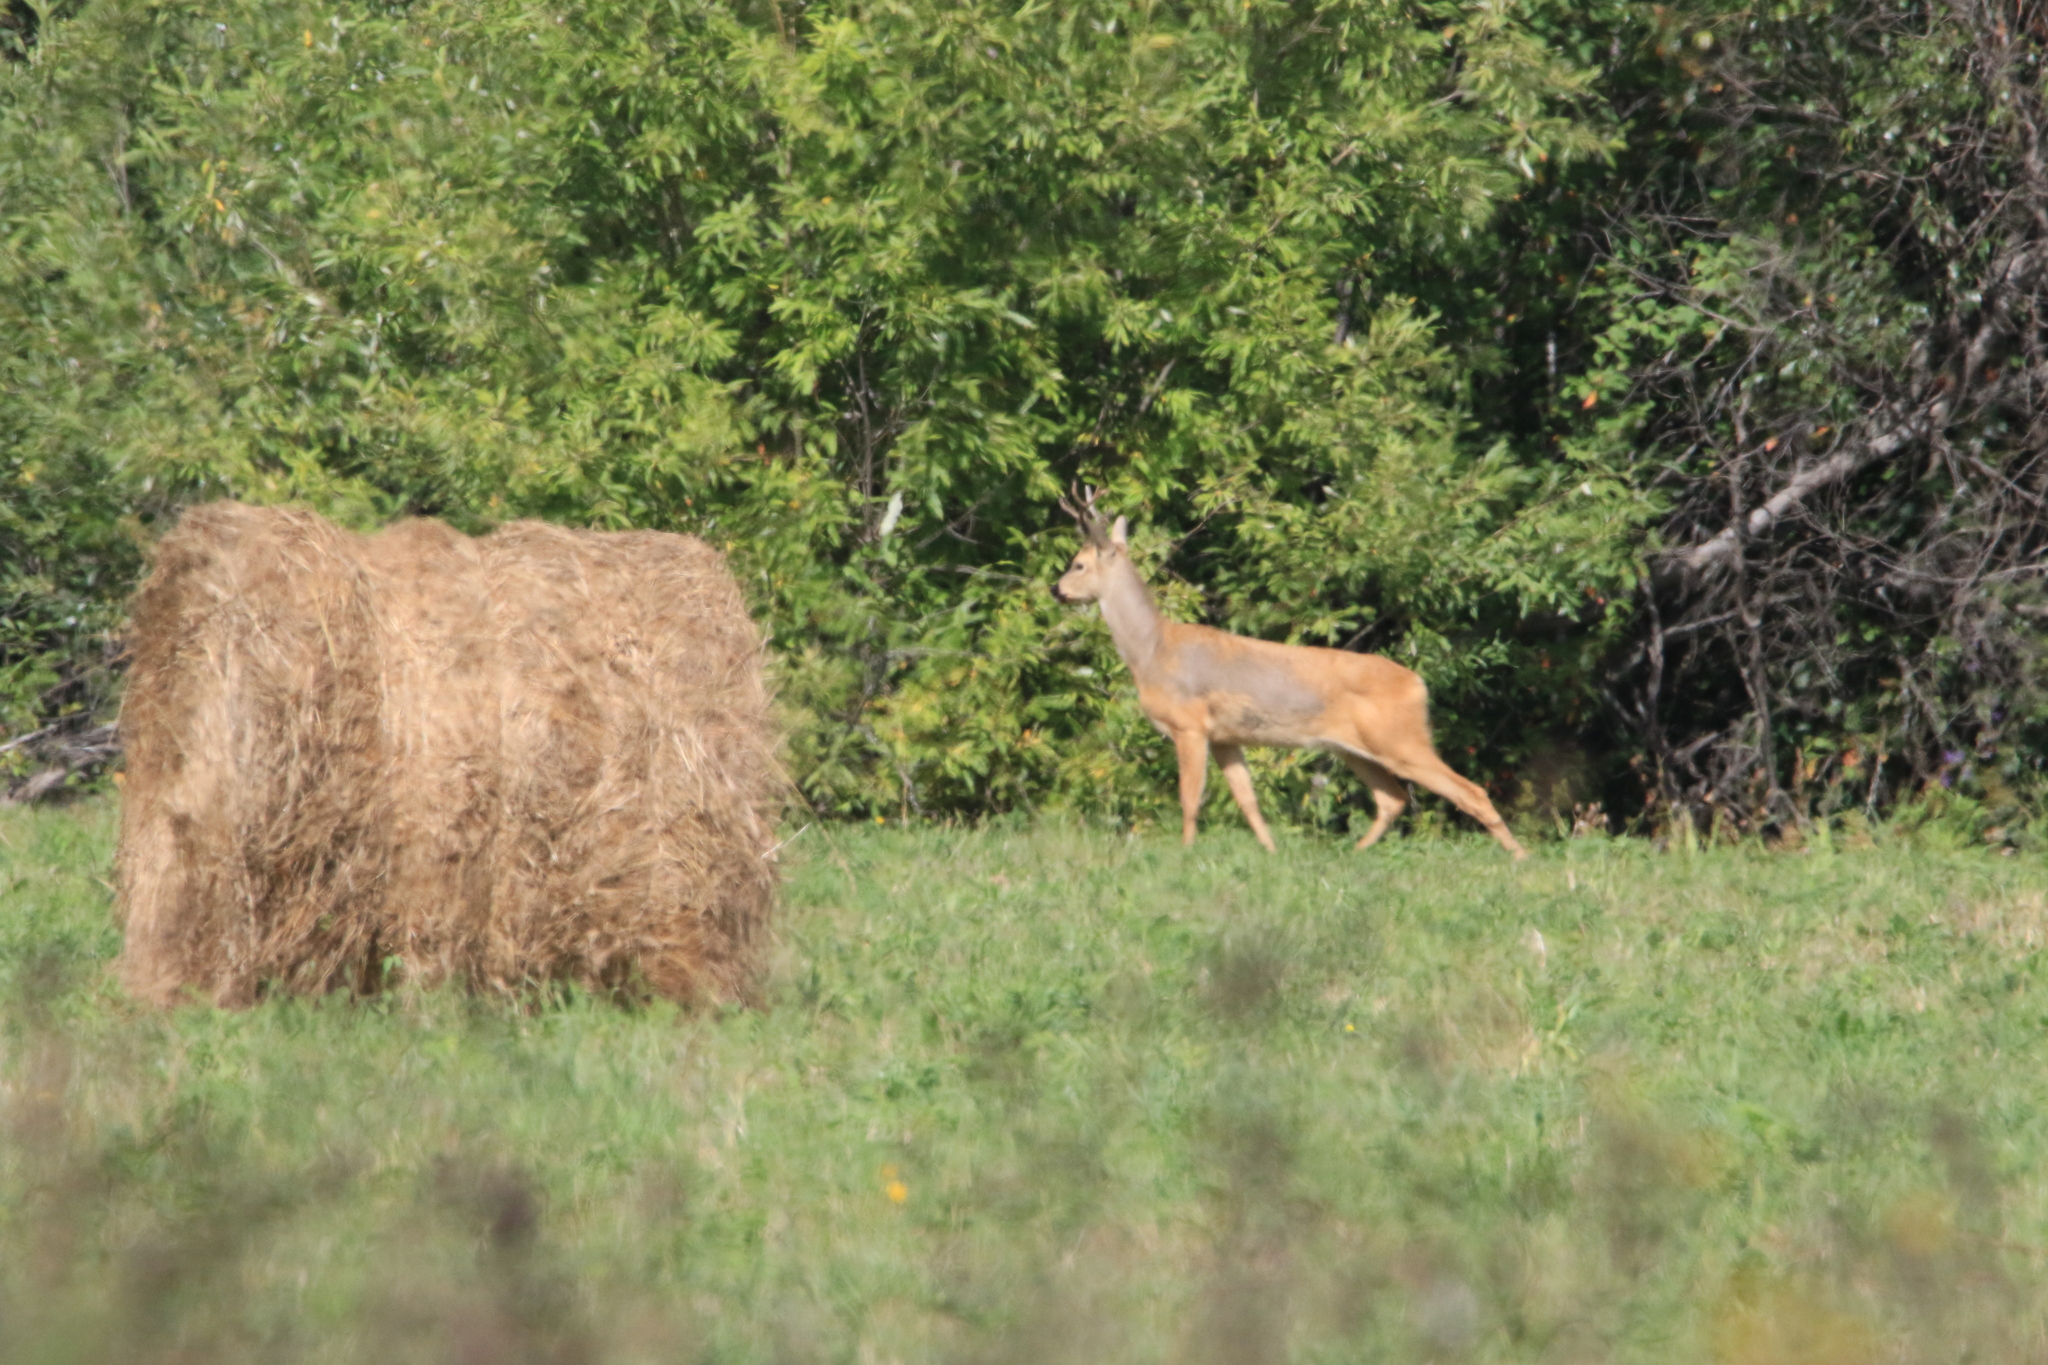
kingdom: Animalia
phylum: Chordata
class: Mammalia
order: Artiodactyla
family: Cervidae
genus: Capreolus
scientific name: Capreolus pygargus
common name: Siberian roe
